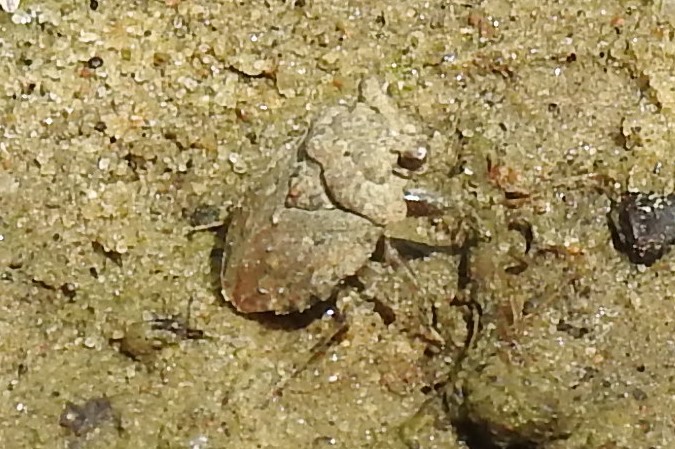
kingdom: Animalia
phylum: Arthropoda
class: Insecta
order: Hemiptera
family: Gelastocoridae
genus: Gelastocoris
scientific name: Gelastocoris oculatus
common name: Toad bug
